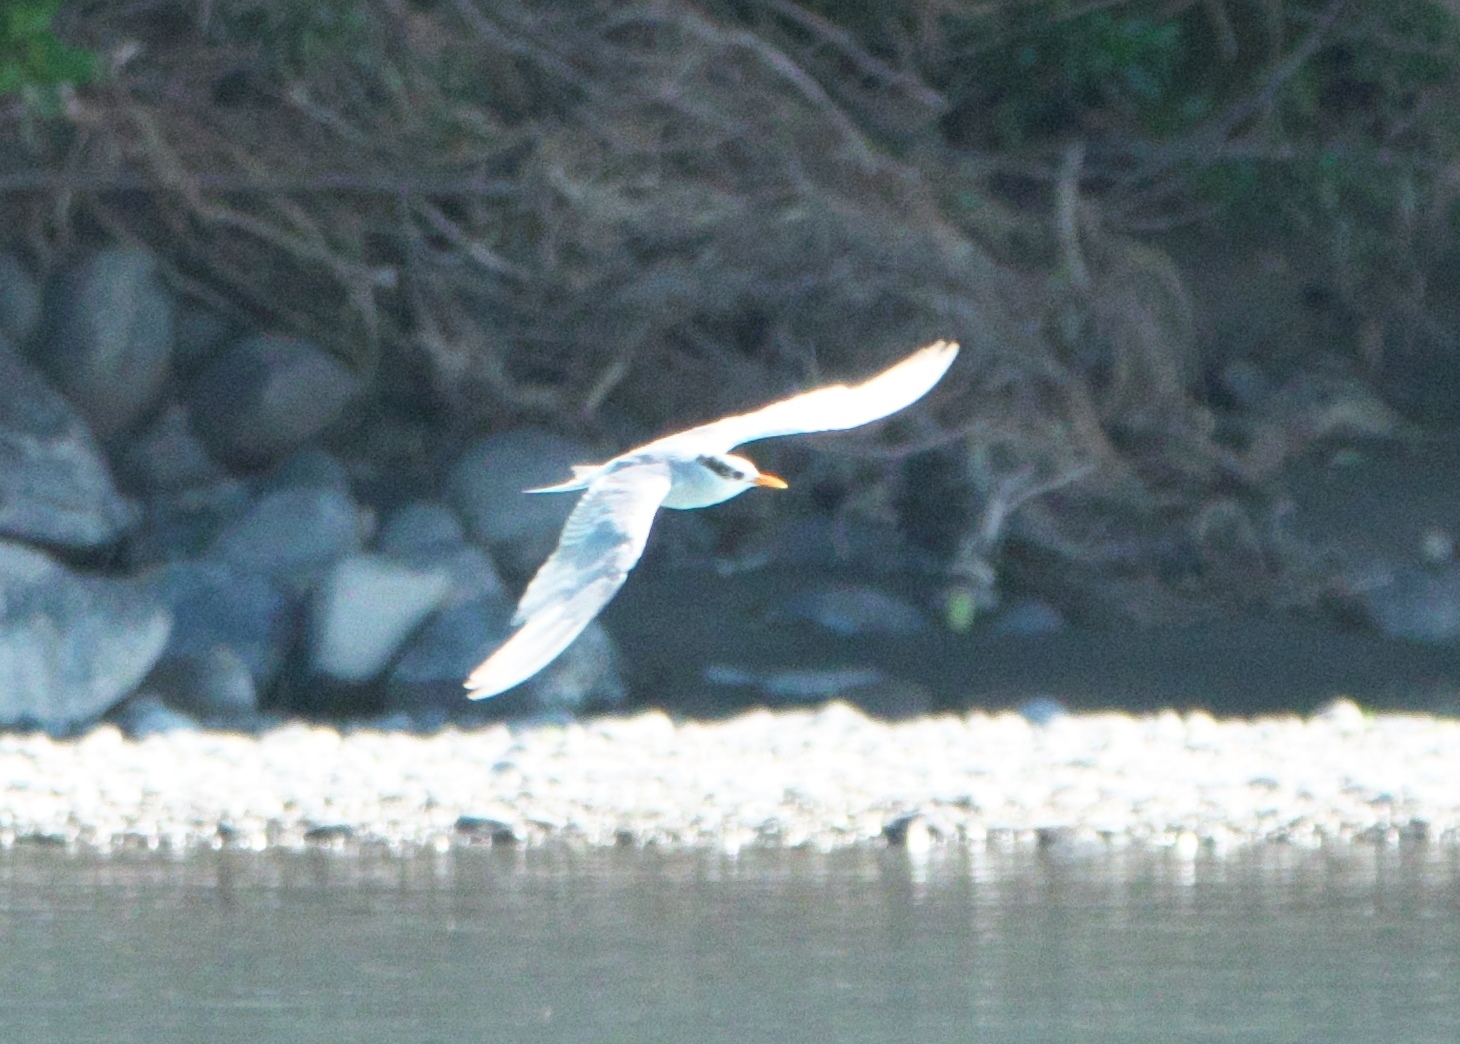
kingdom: Animalia
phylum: Chordata
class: Aves
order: Charadriiformes
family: Laridae
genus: Chlidonias
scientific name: Chlidonias albostriatus
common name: Black-fronted tern
